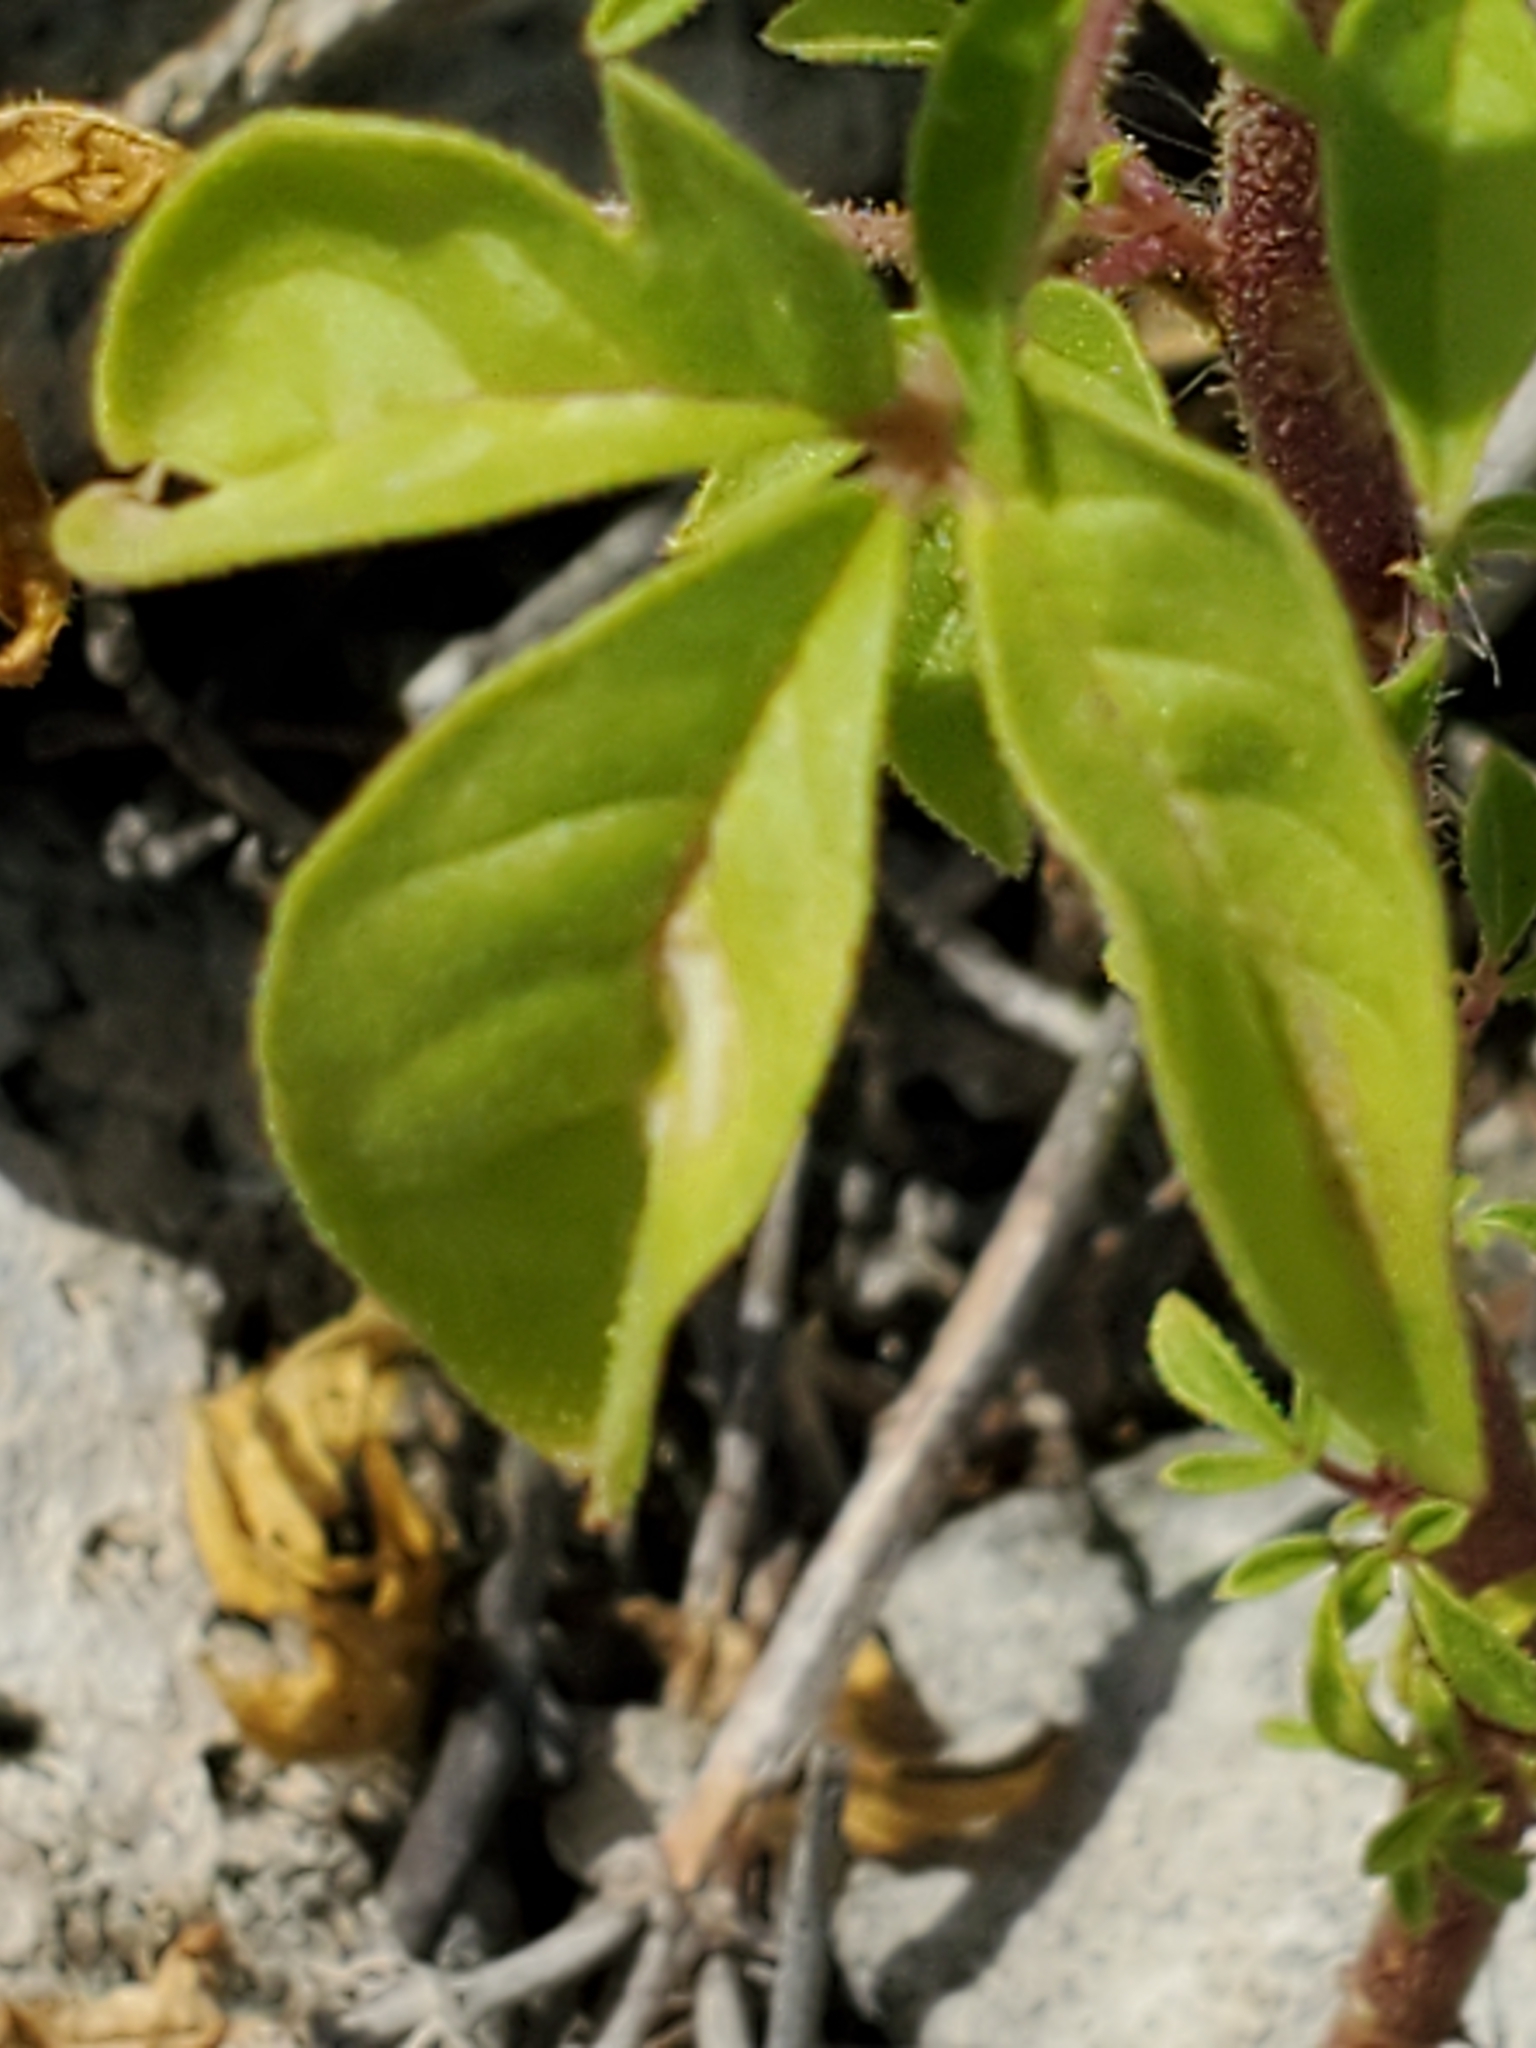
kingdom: Plantae
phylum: Tracheophyta
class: Magnoliopsida
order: Brassicales
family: Cleomaceae
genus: Polanisia
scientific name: Polanisia dodecandra
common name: Clammyweed
